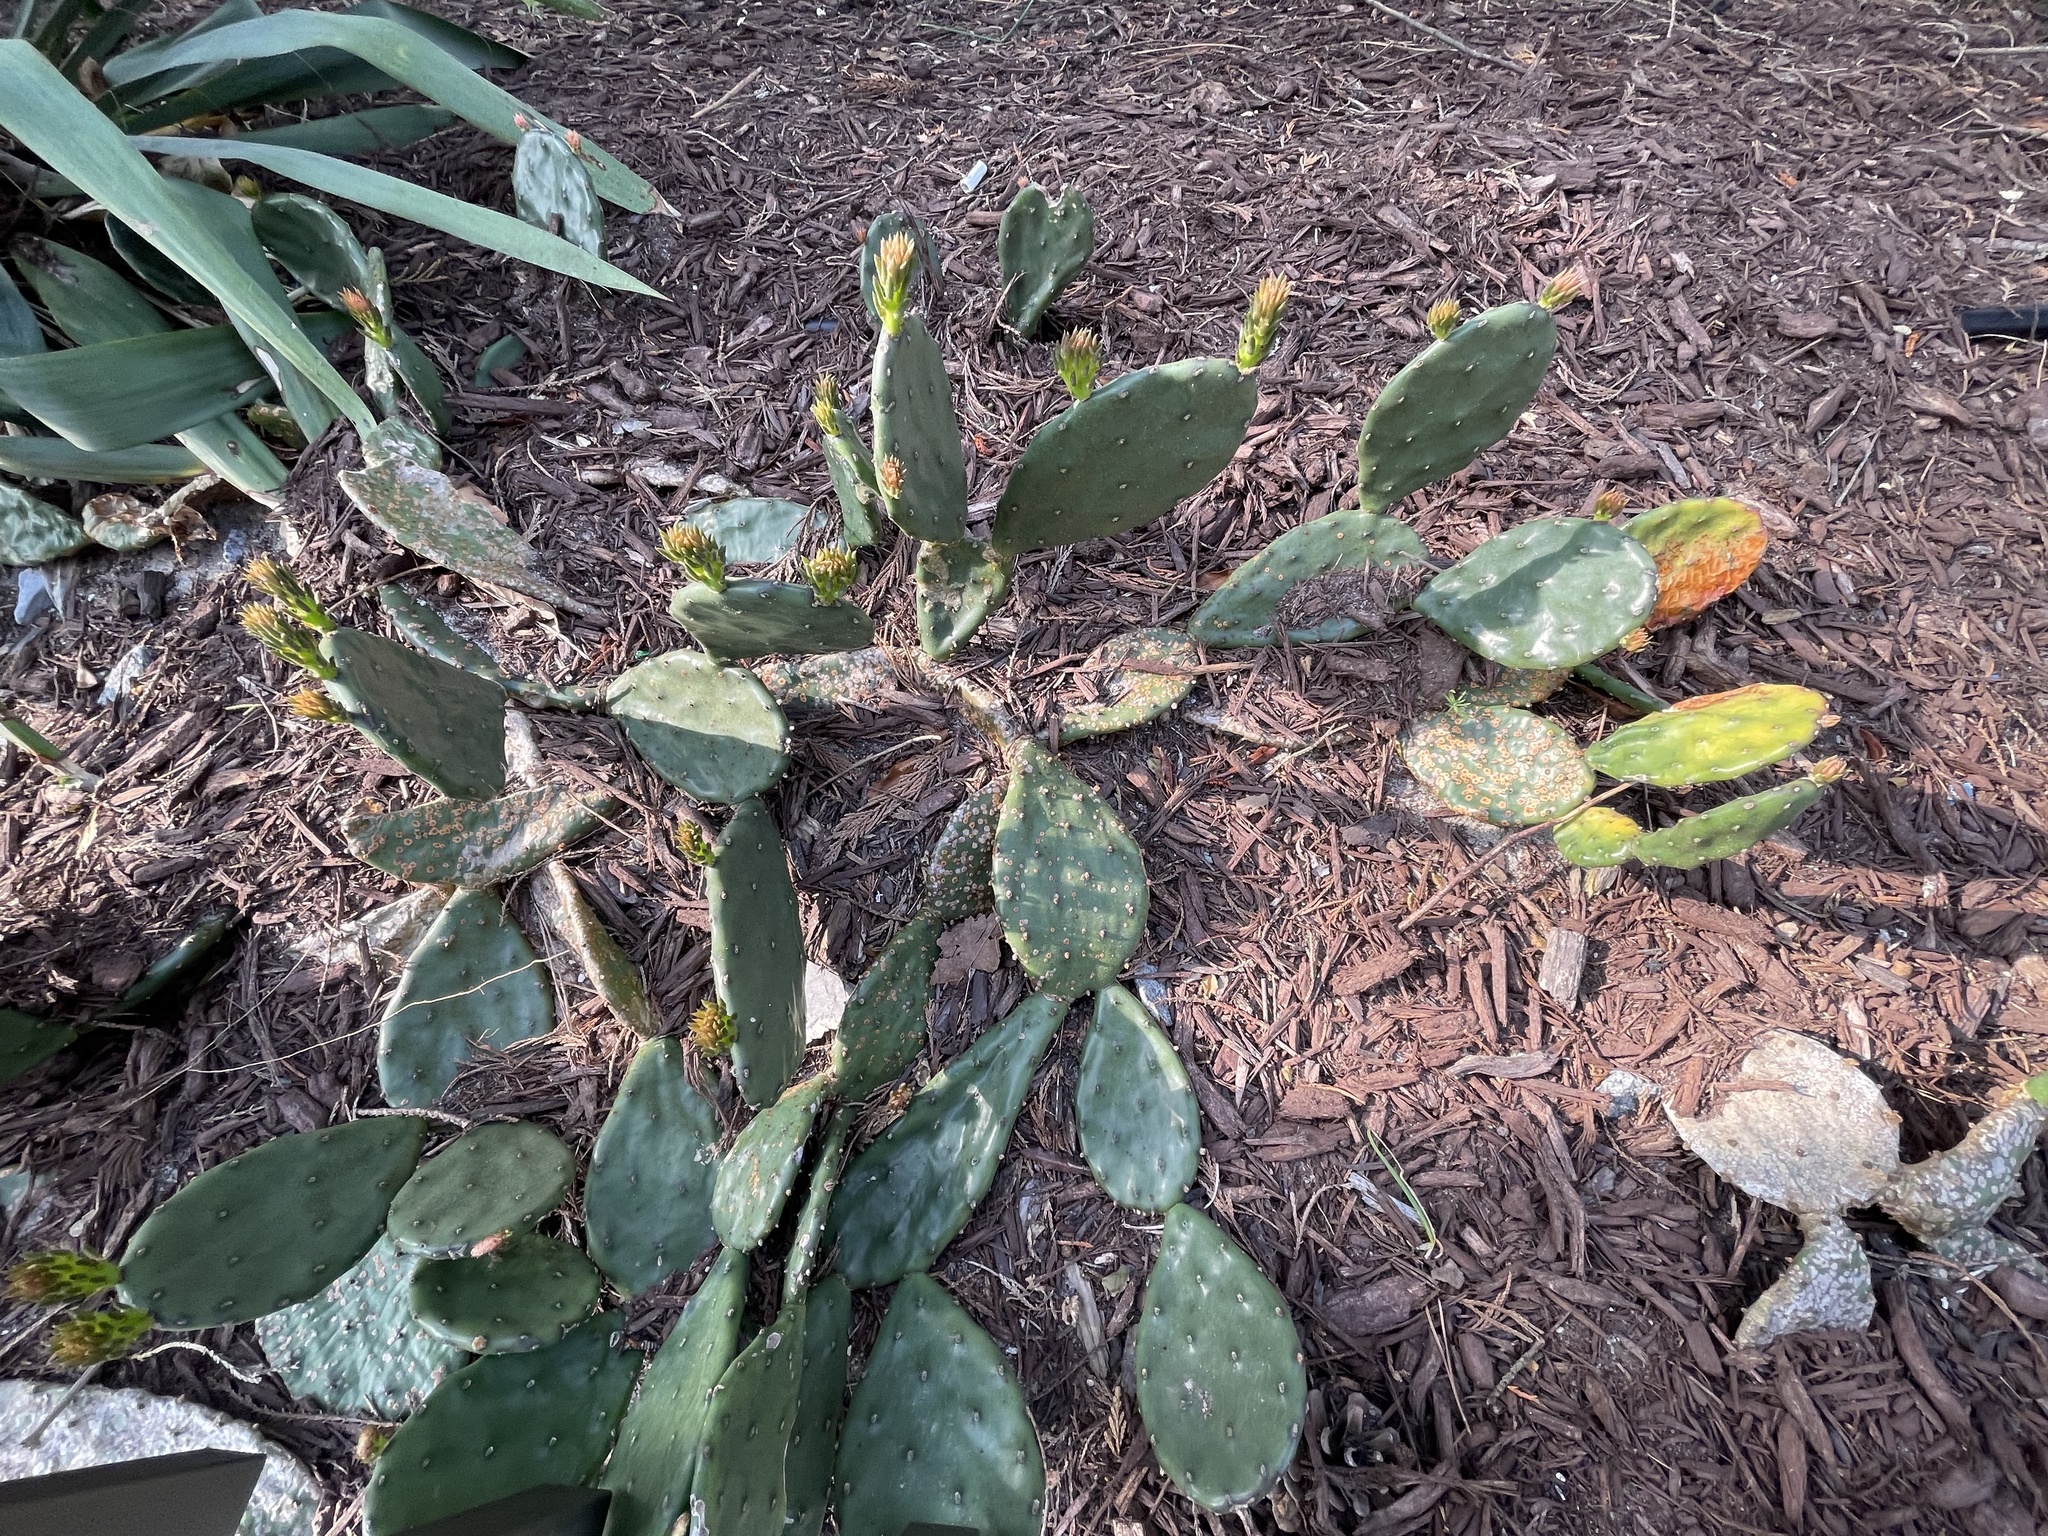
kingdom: Plantae
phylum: Tracheophyta
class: Magnoliopsida
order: Caryophyllales
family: Cactaceae
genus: Opuntia
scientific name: Opuntia humifusa
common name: Eastern prickly-pear
